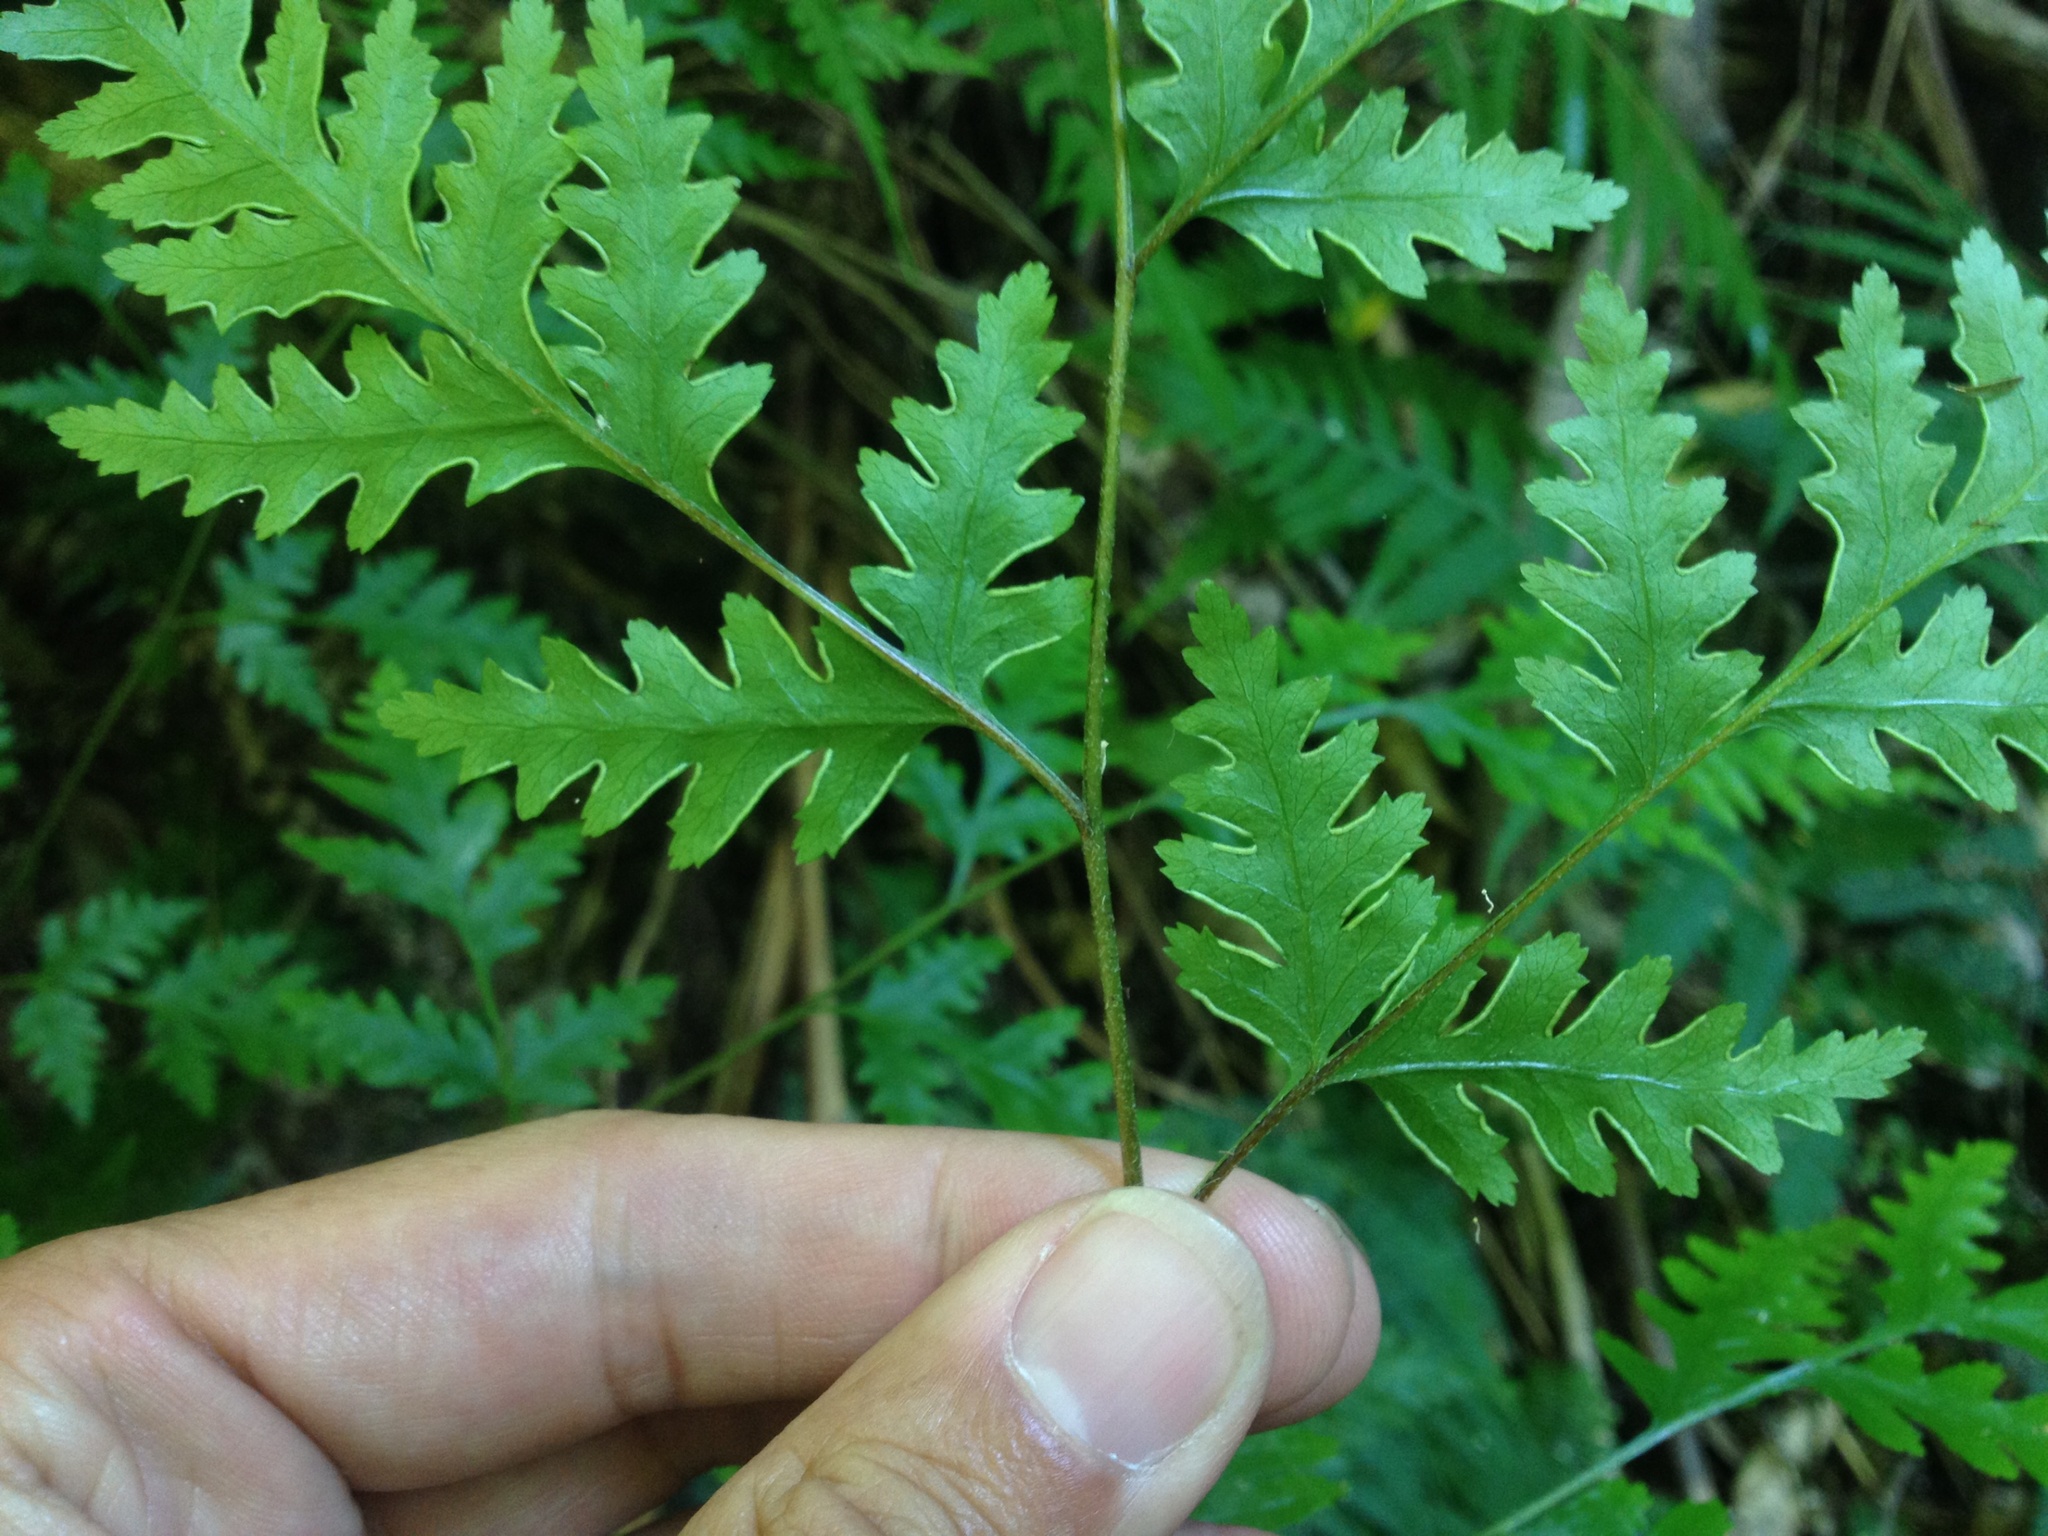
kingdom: Plantae
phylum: Tracheophyta
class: Polypodiopsida
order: Polypodiales
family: Pteridaceae
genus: Pteris
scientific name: Pteris macilenta
